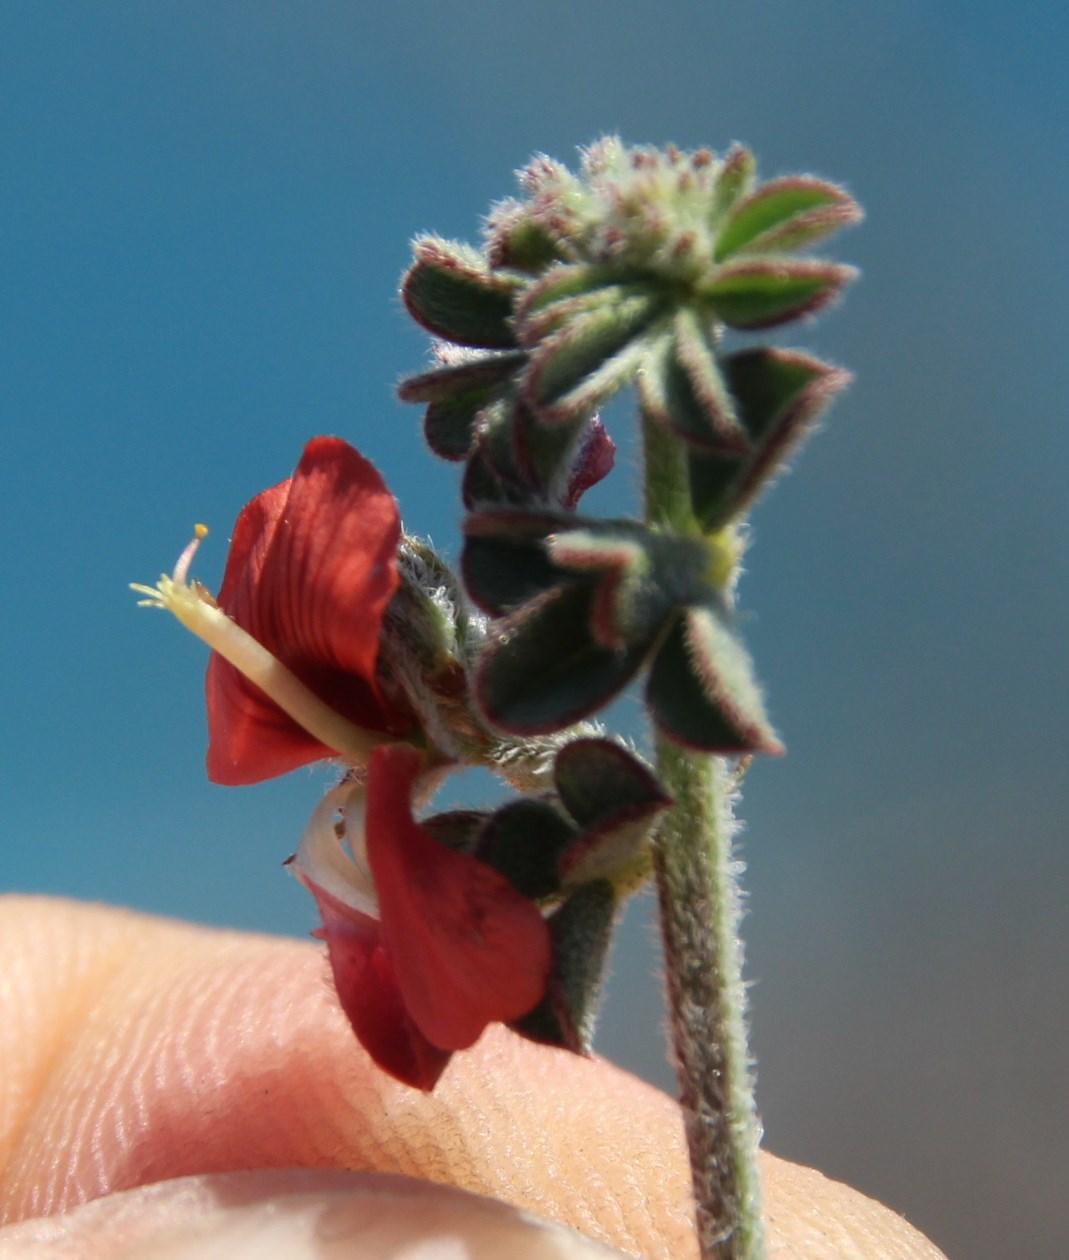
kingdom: Plantae
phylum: Tracheophyta
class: Magnoliopsida
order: Fabales
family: Fabaceae
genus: Indigofera
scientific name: Indigofera priorii
